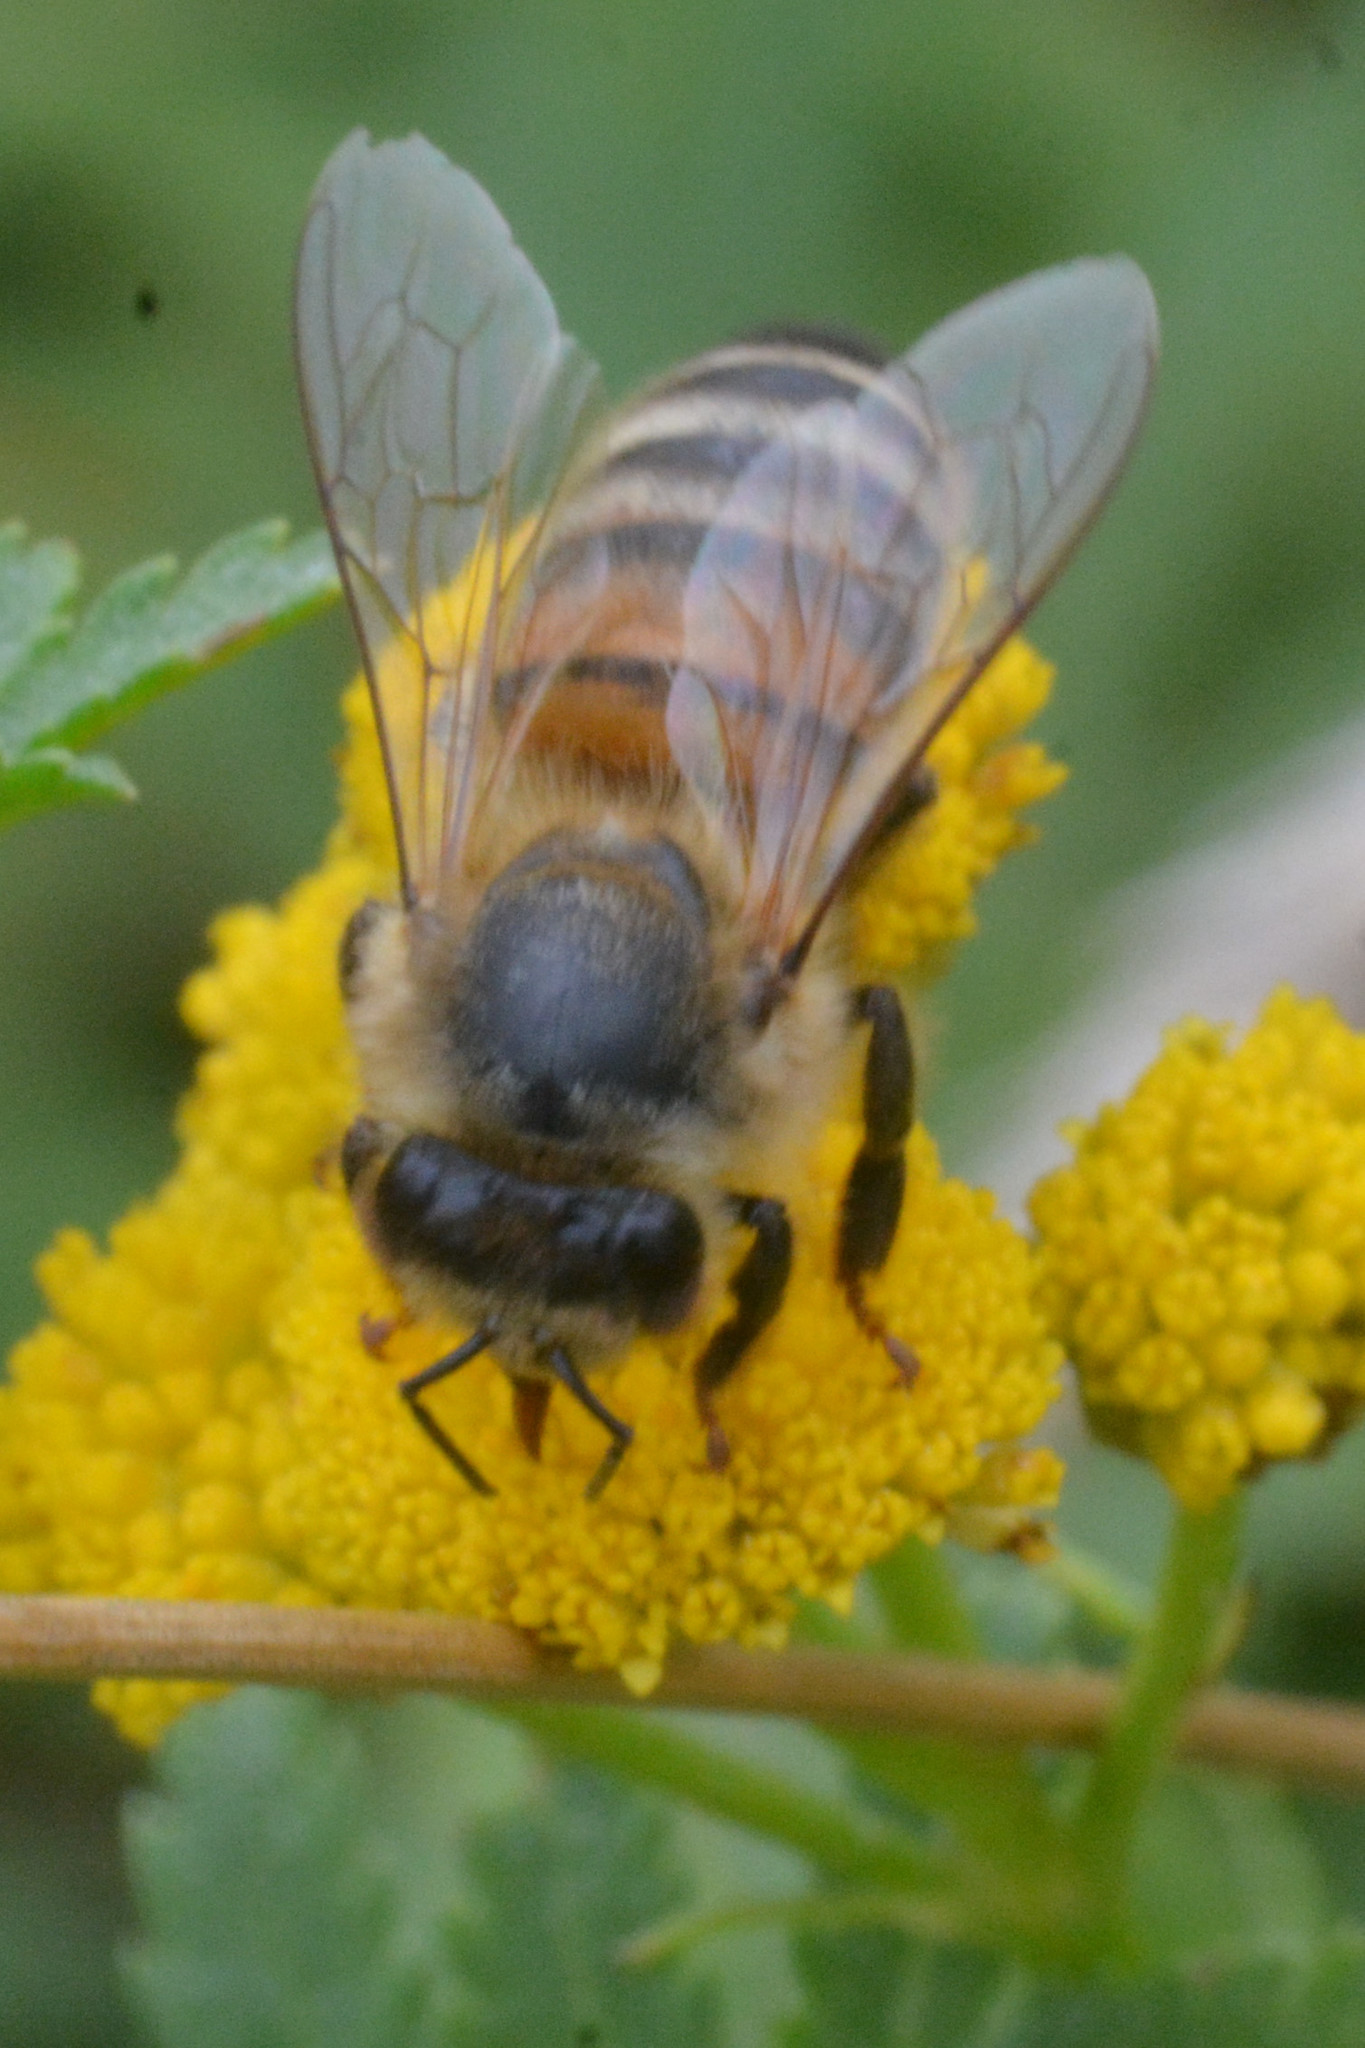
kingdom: Animalia
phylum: Arthropoda
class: Insecta
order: Hymenoptera
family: Apidae
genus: Apis
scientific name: Apis mellifera
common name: Honey bee
